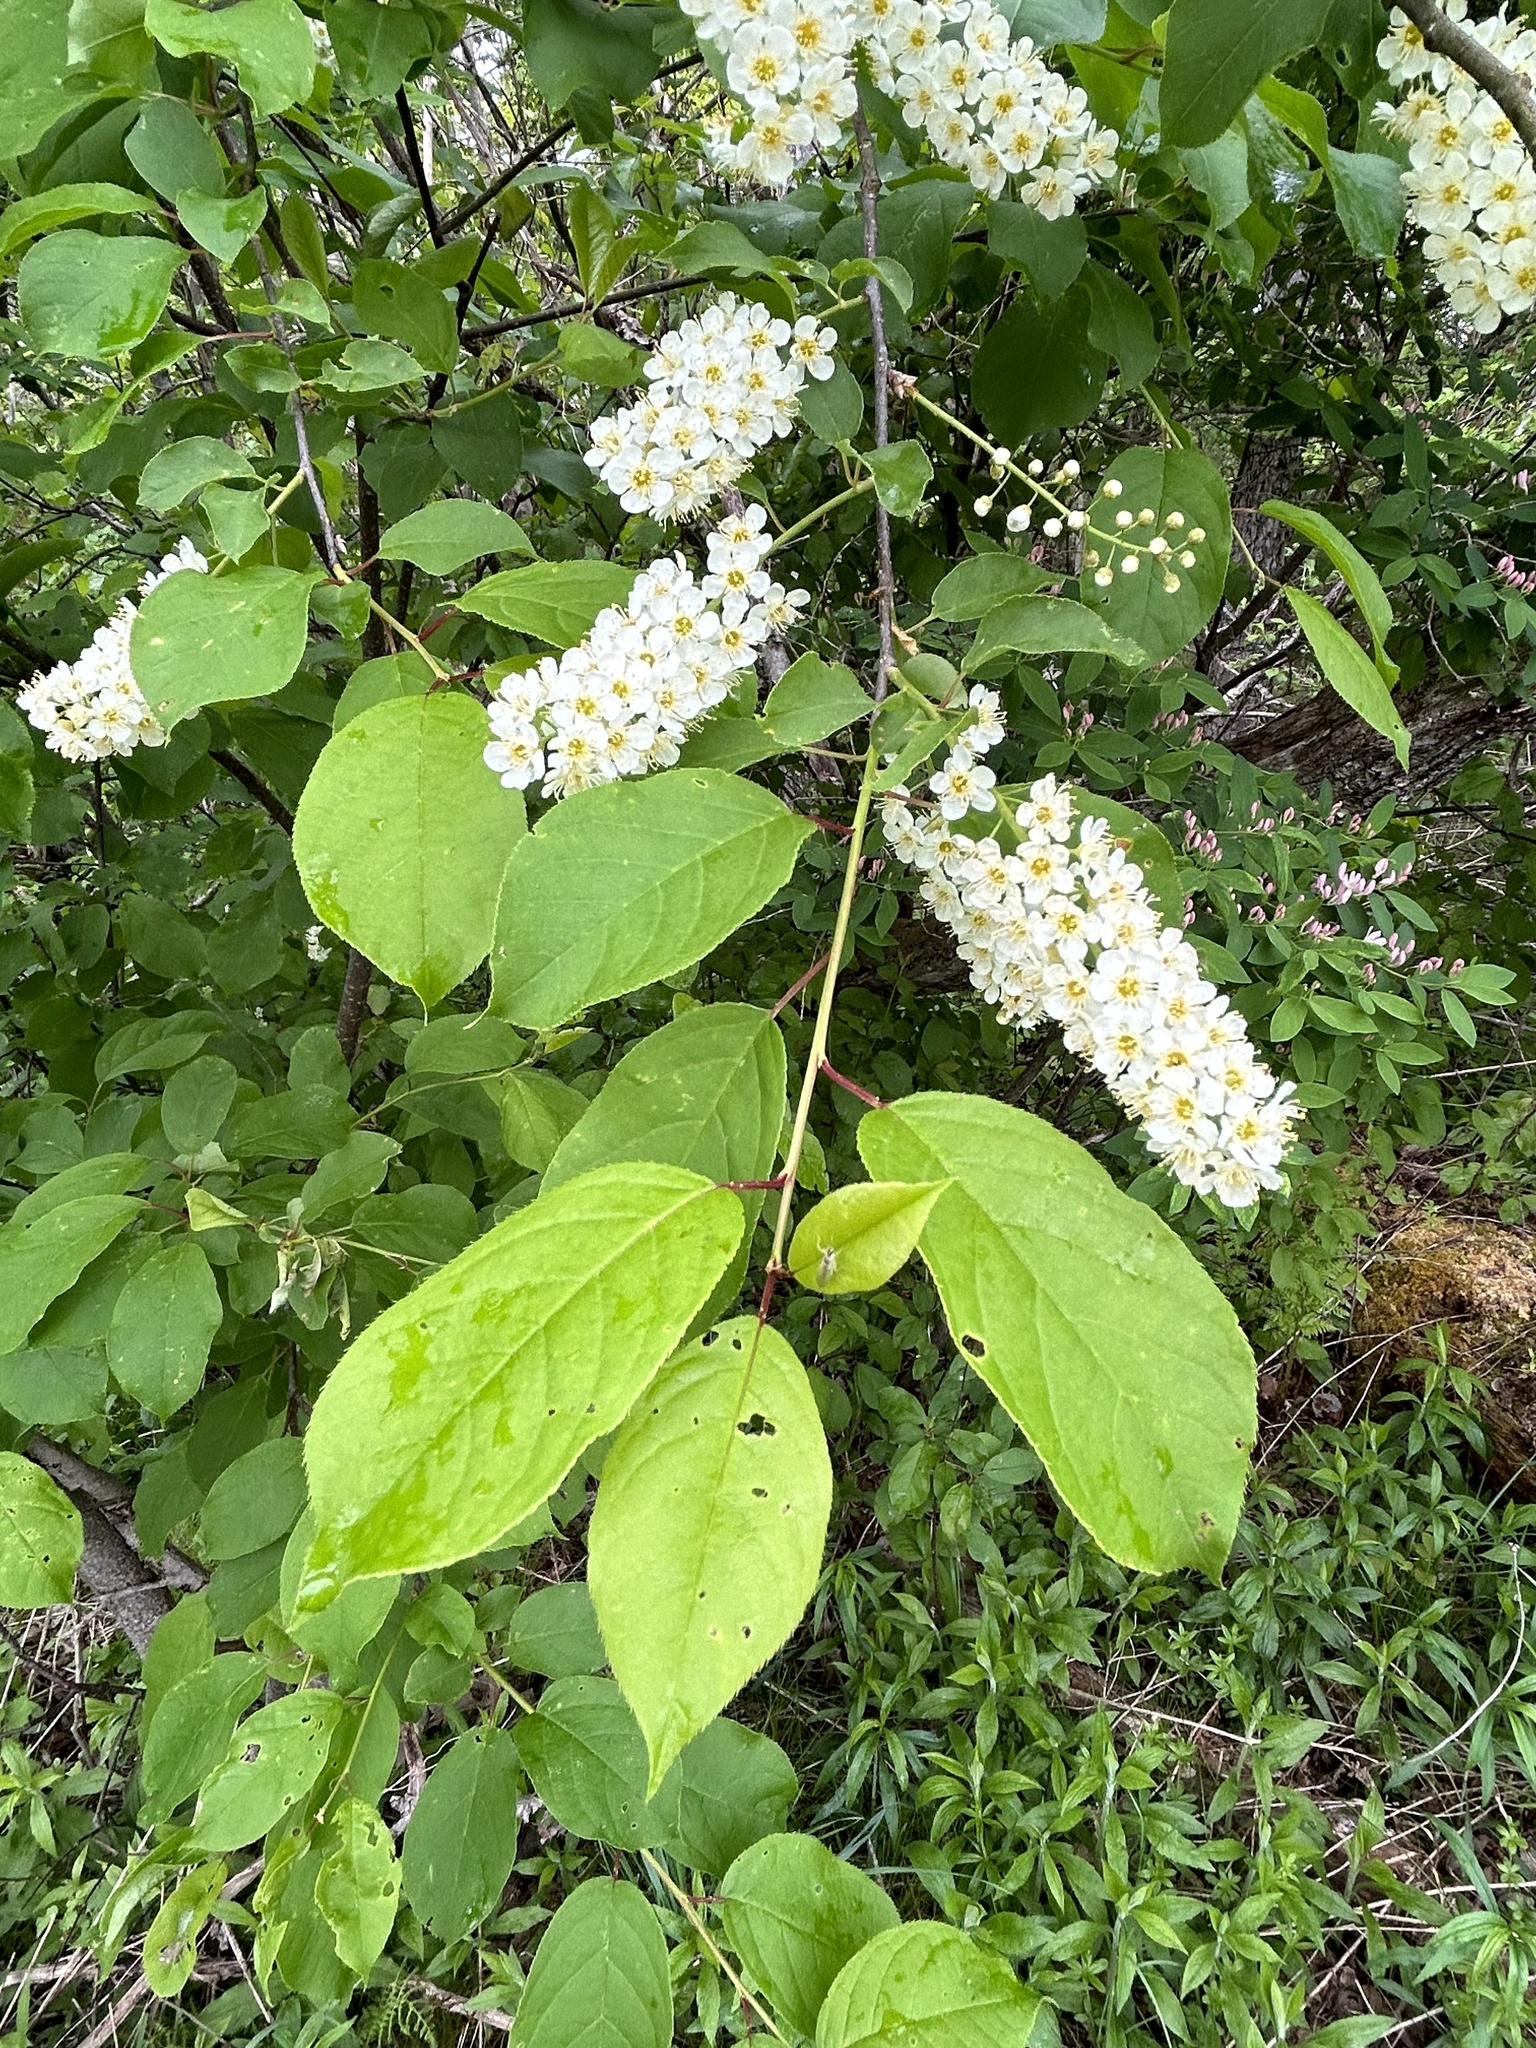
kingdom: Plantae
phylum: Tracheophyta
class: Magnoliopsida
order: Rosales
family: Rosaceae
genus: Prunus
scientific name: Prunus virginiana
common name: Chokecherry
